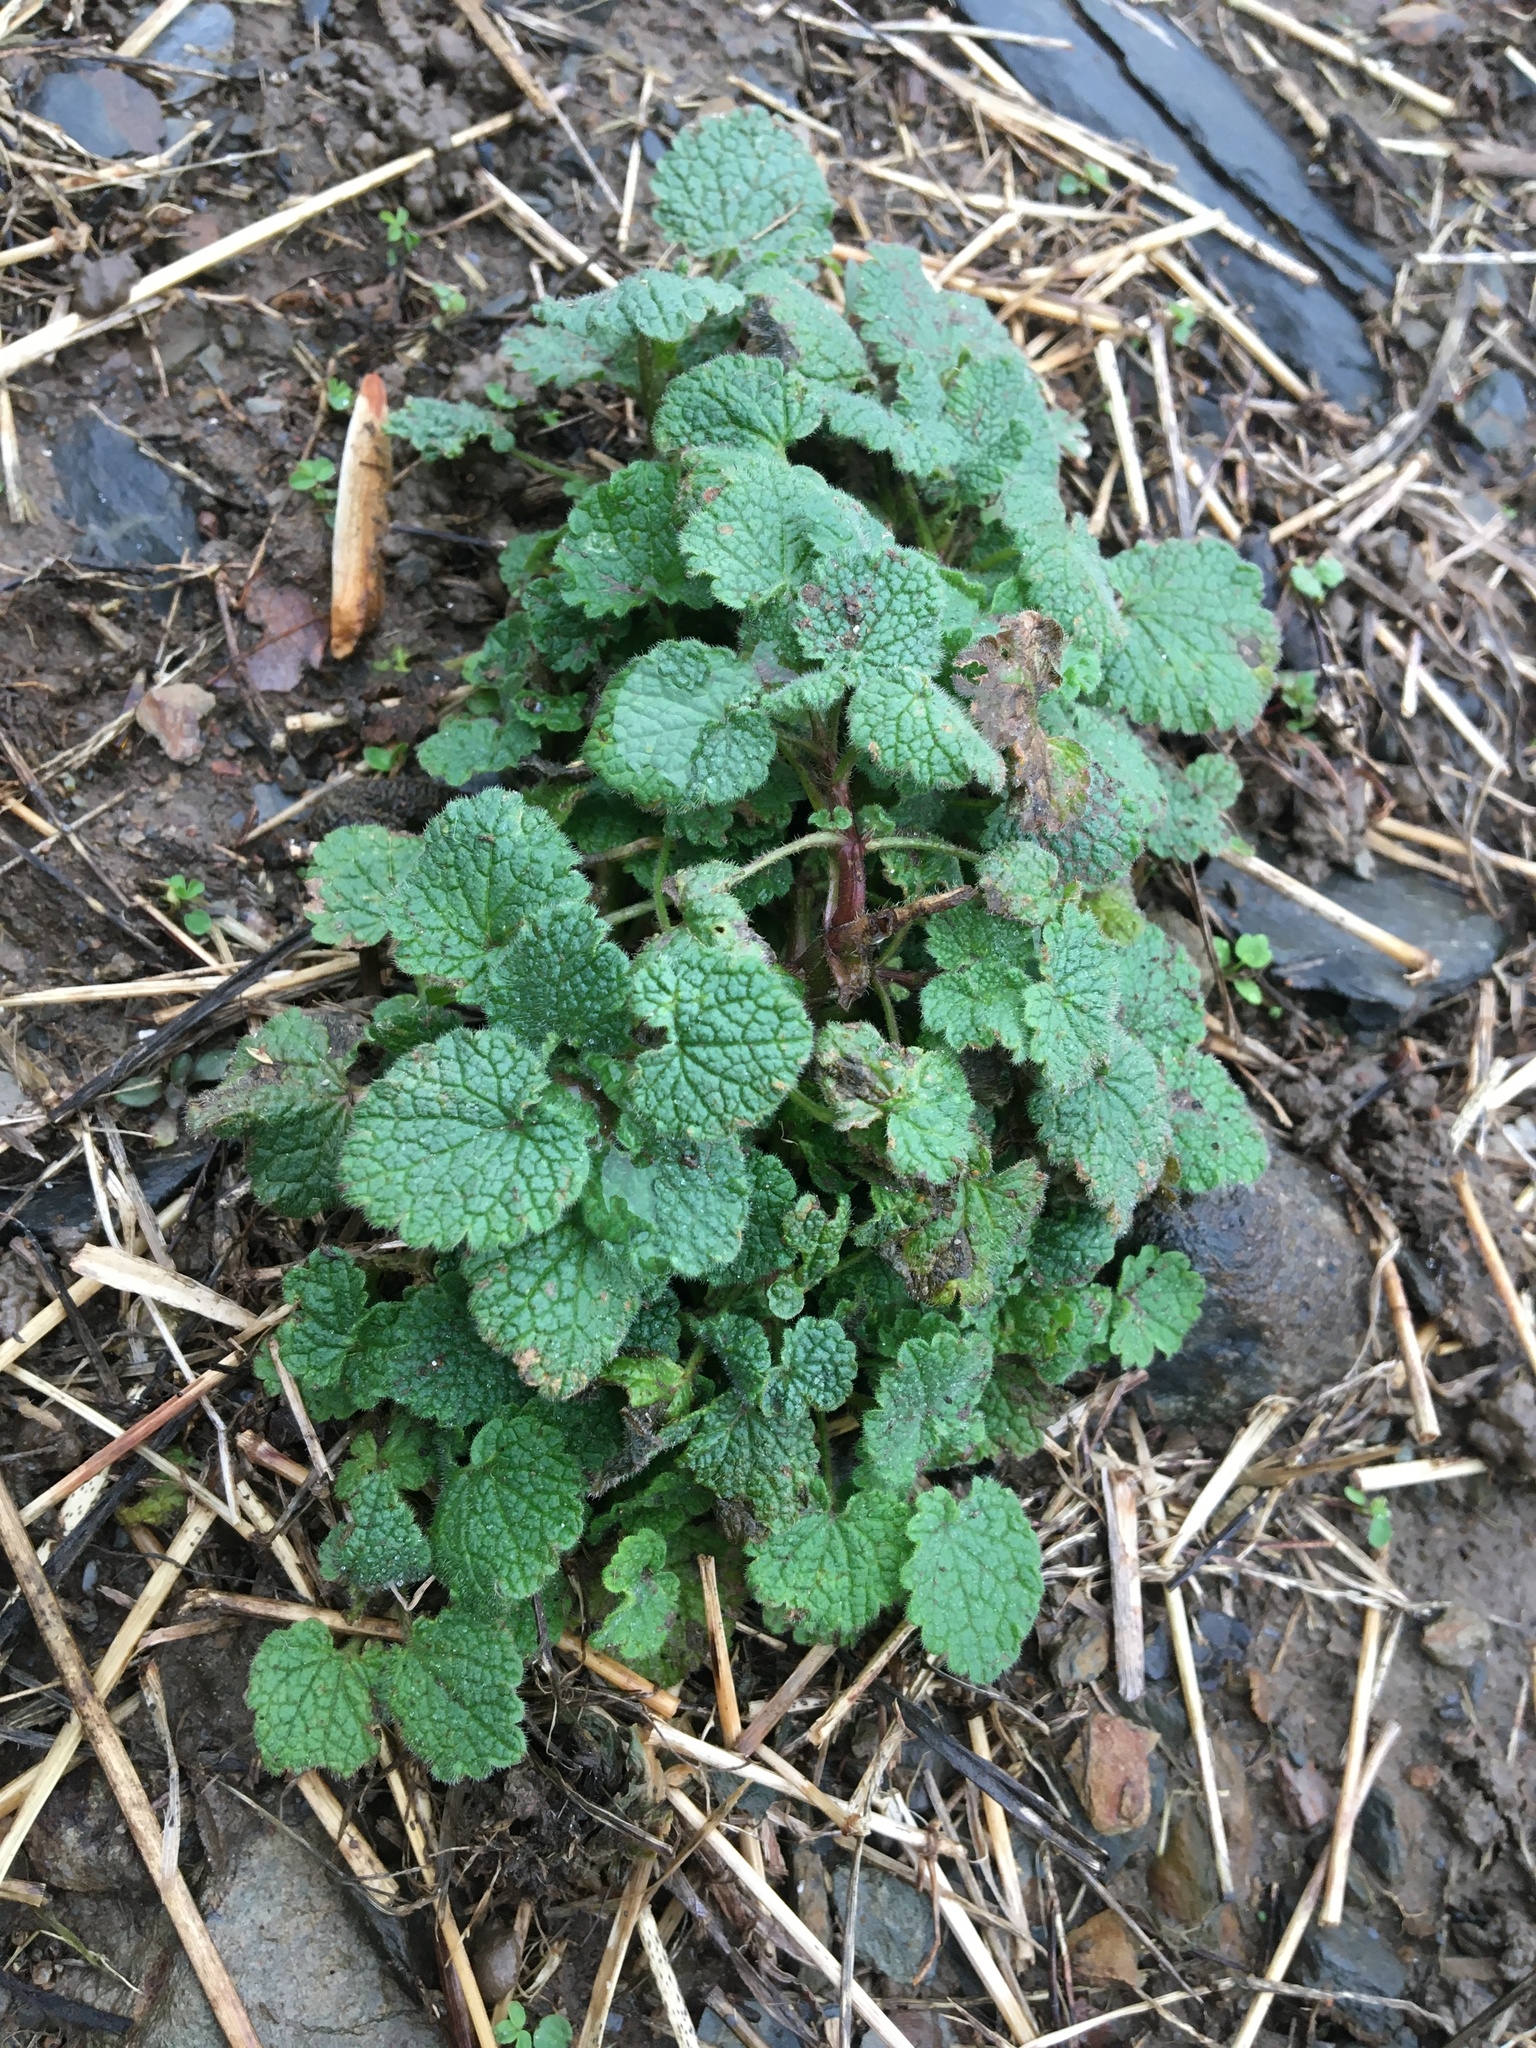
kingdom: Plantae
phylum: Tracheophyta
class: Magnoliopsida
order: Lamiales
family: Lamiaceae
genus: Lamium
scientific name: Lamium purpureum
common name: Red dead-nettle
